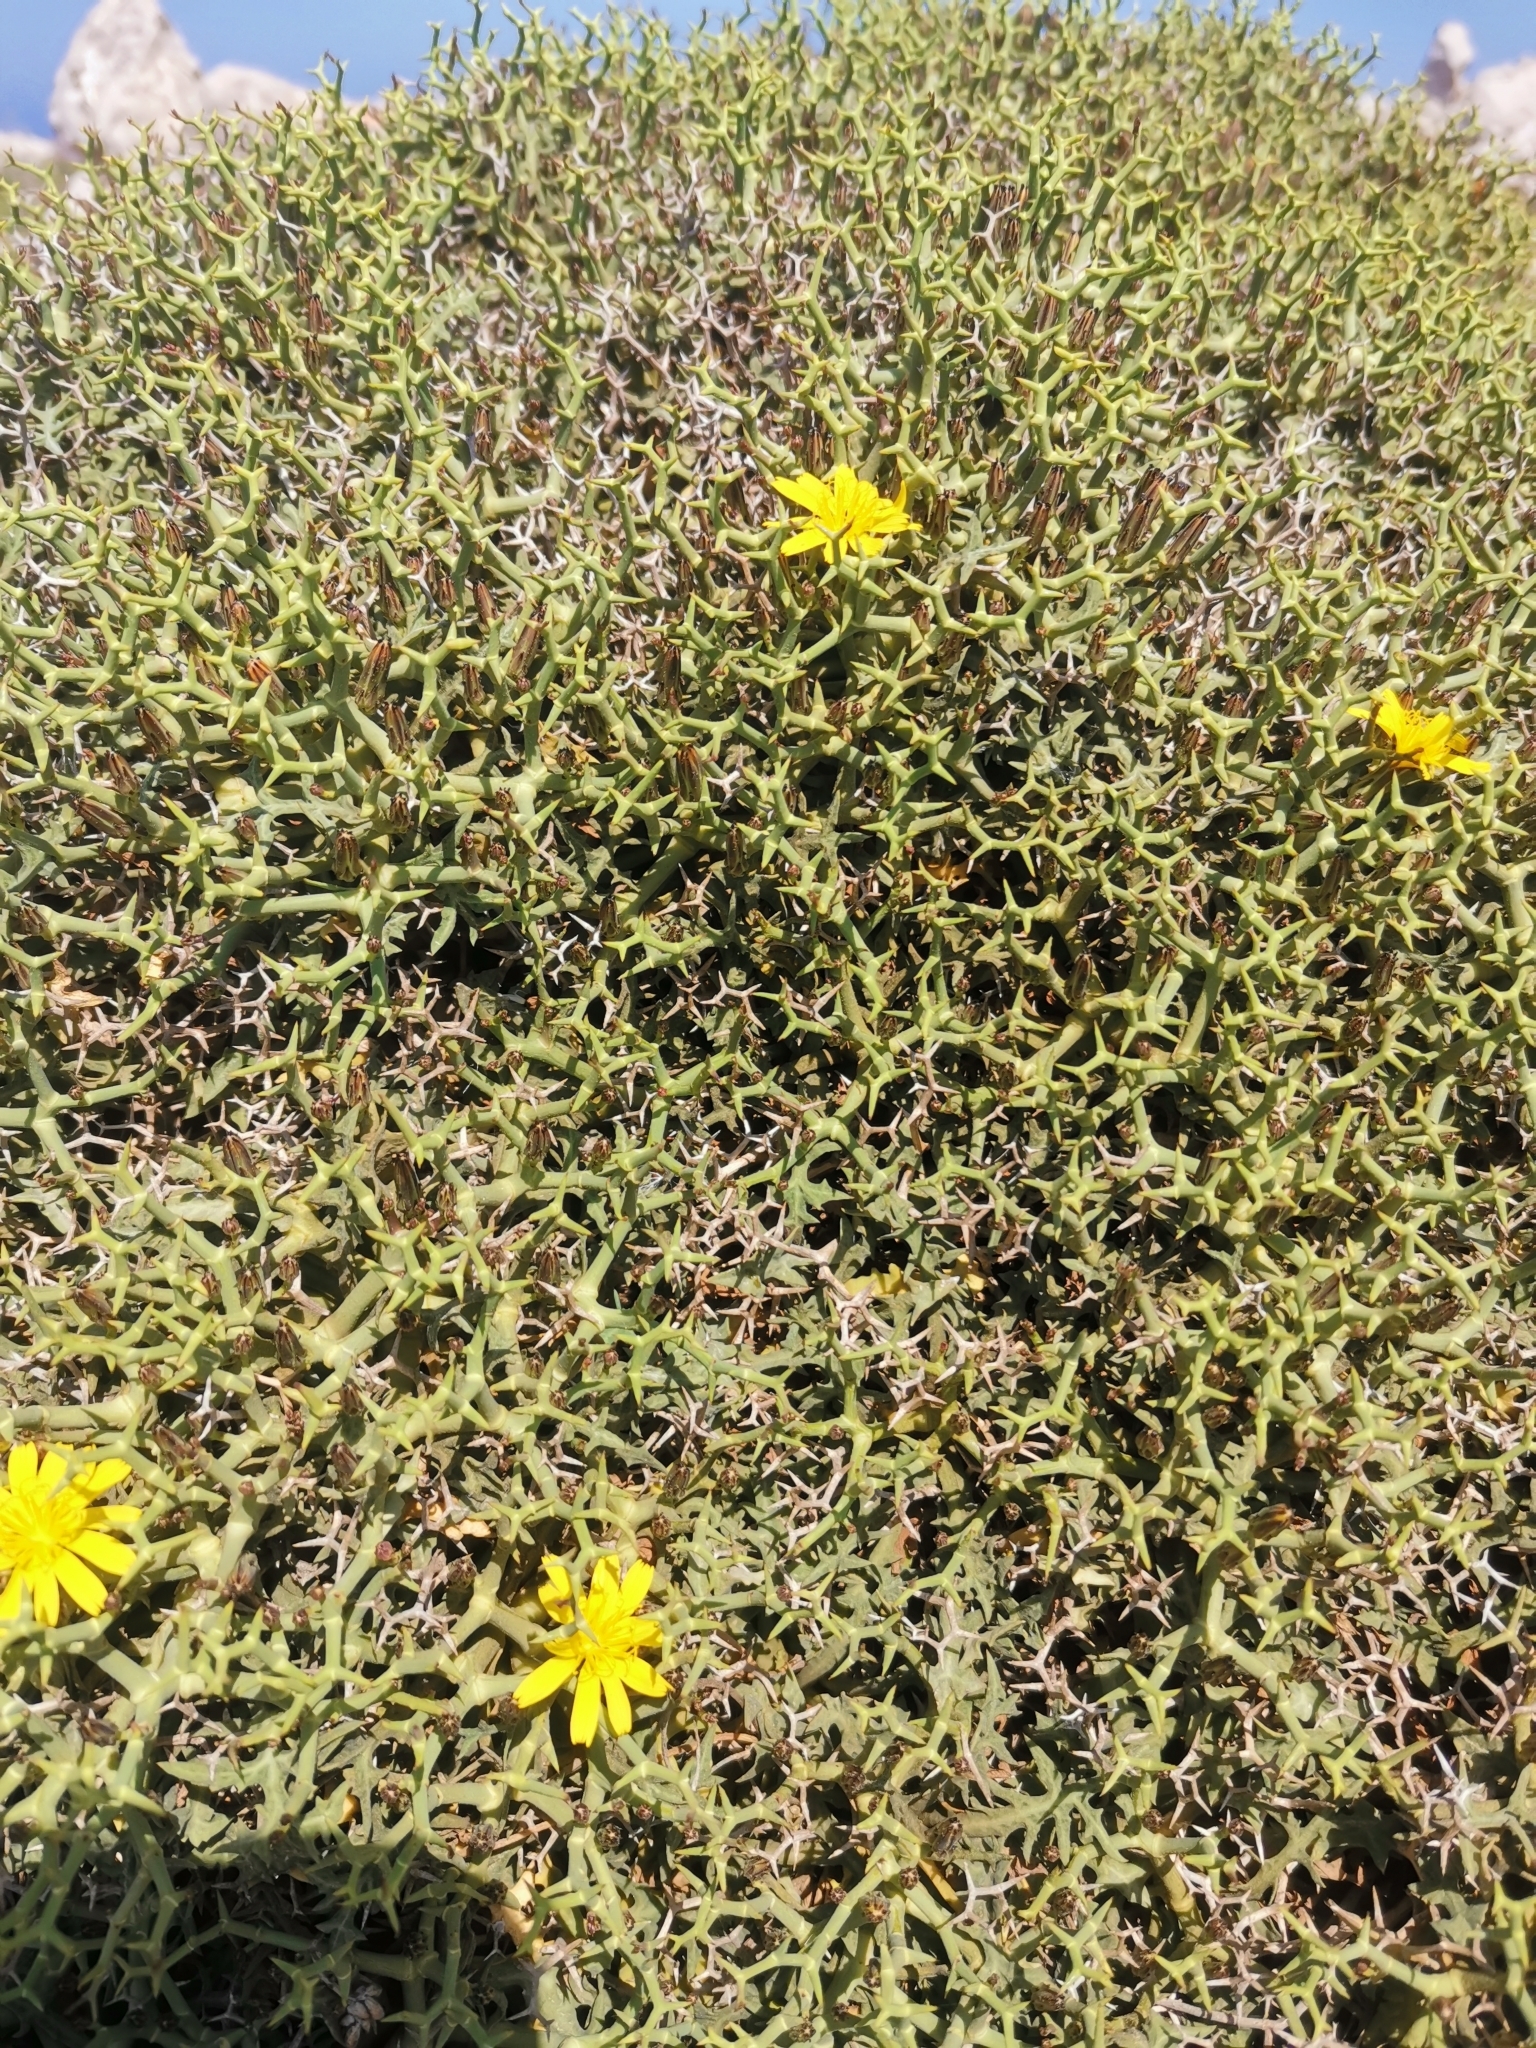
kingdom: Plantae
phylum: Tracheophyta
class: Magnoliopsida
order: Asterales
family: Asteraceae
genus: Launaea
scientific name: Launaea cervicornis
